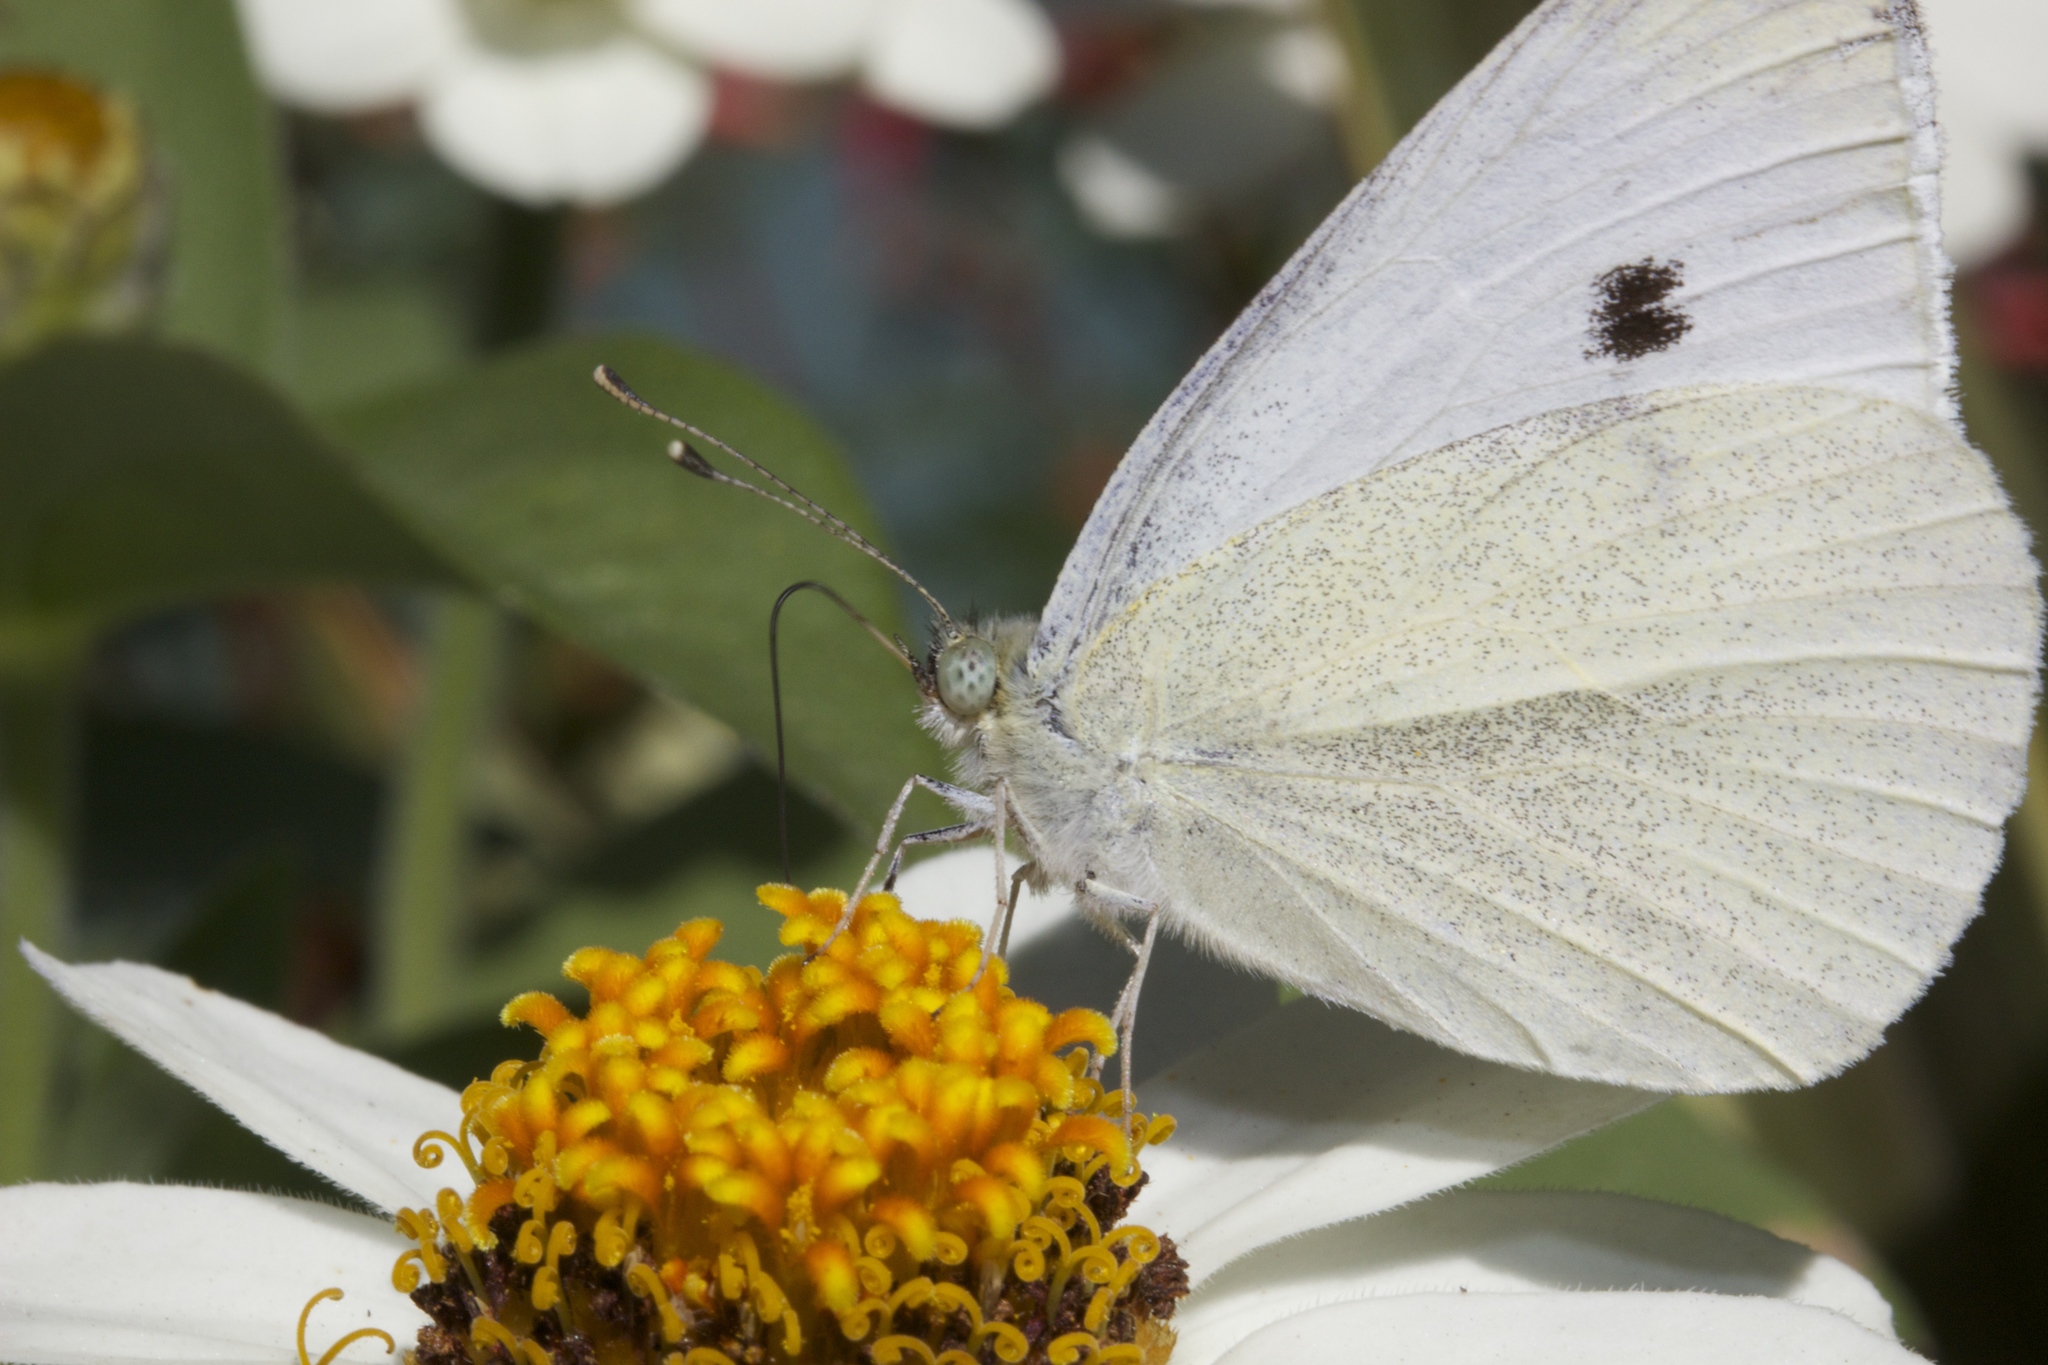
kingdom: Animalia
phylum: Arthropoda
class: Insecta
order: Lepidoptera
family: Pieridae
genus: Pieris
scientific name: Pieris rapae
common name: Small white
